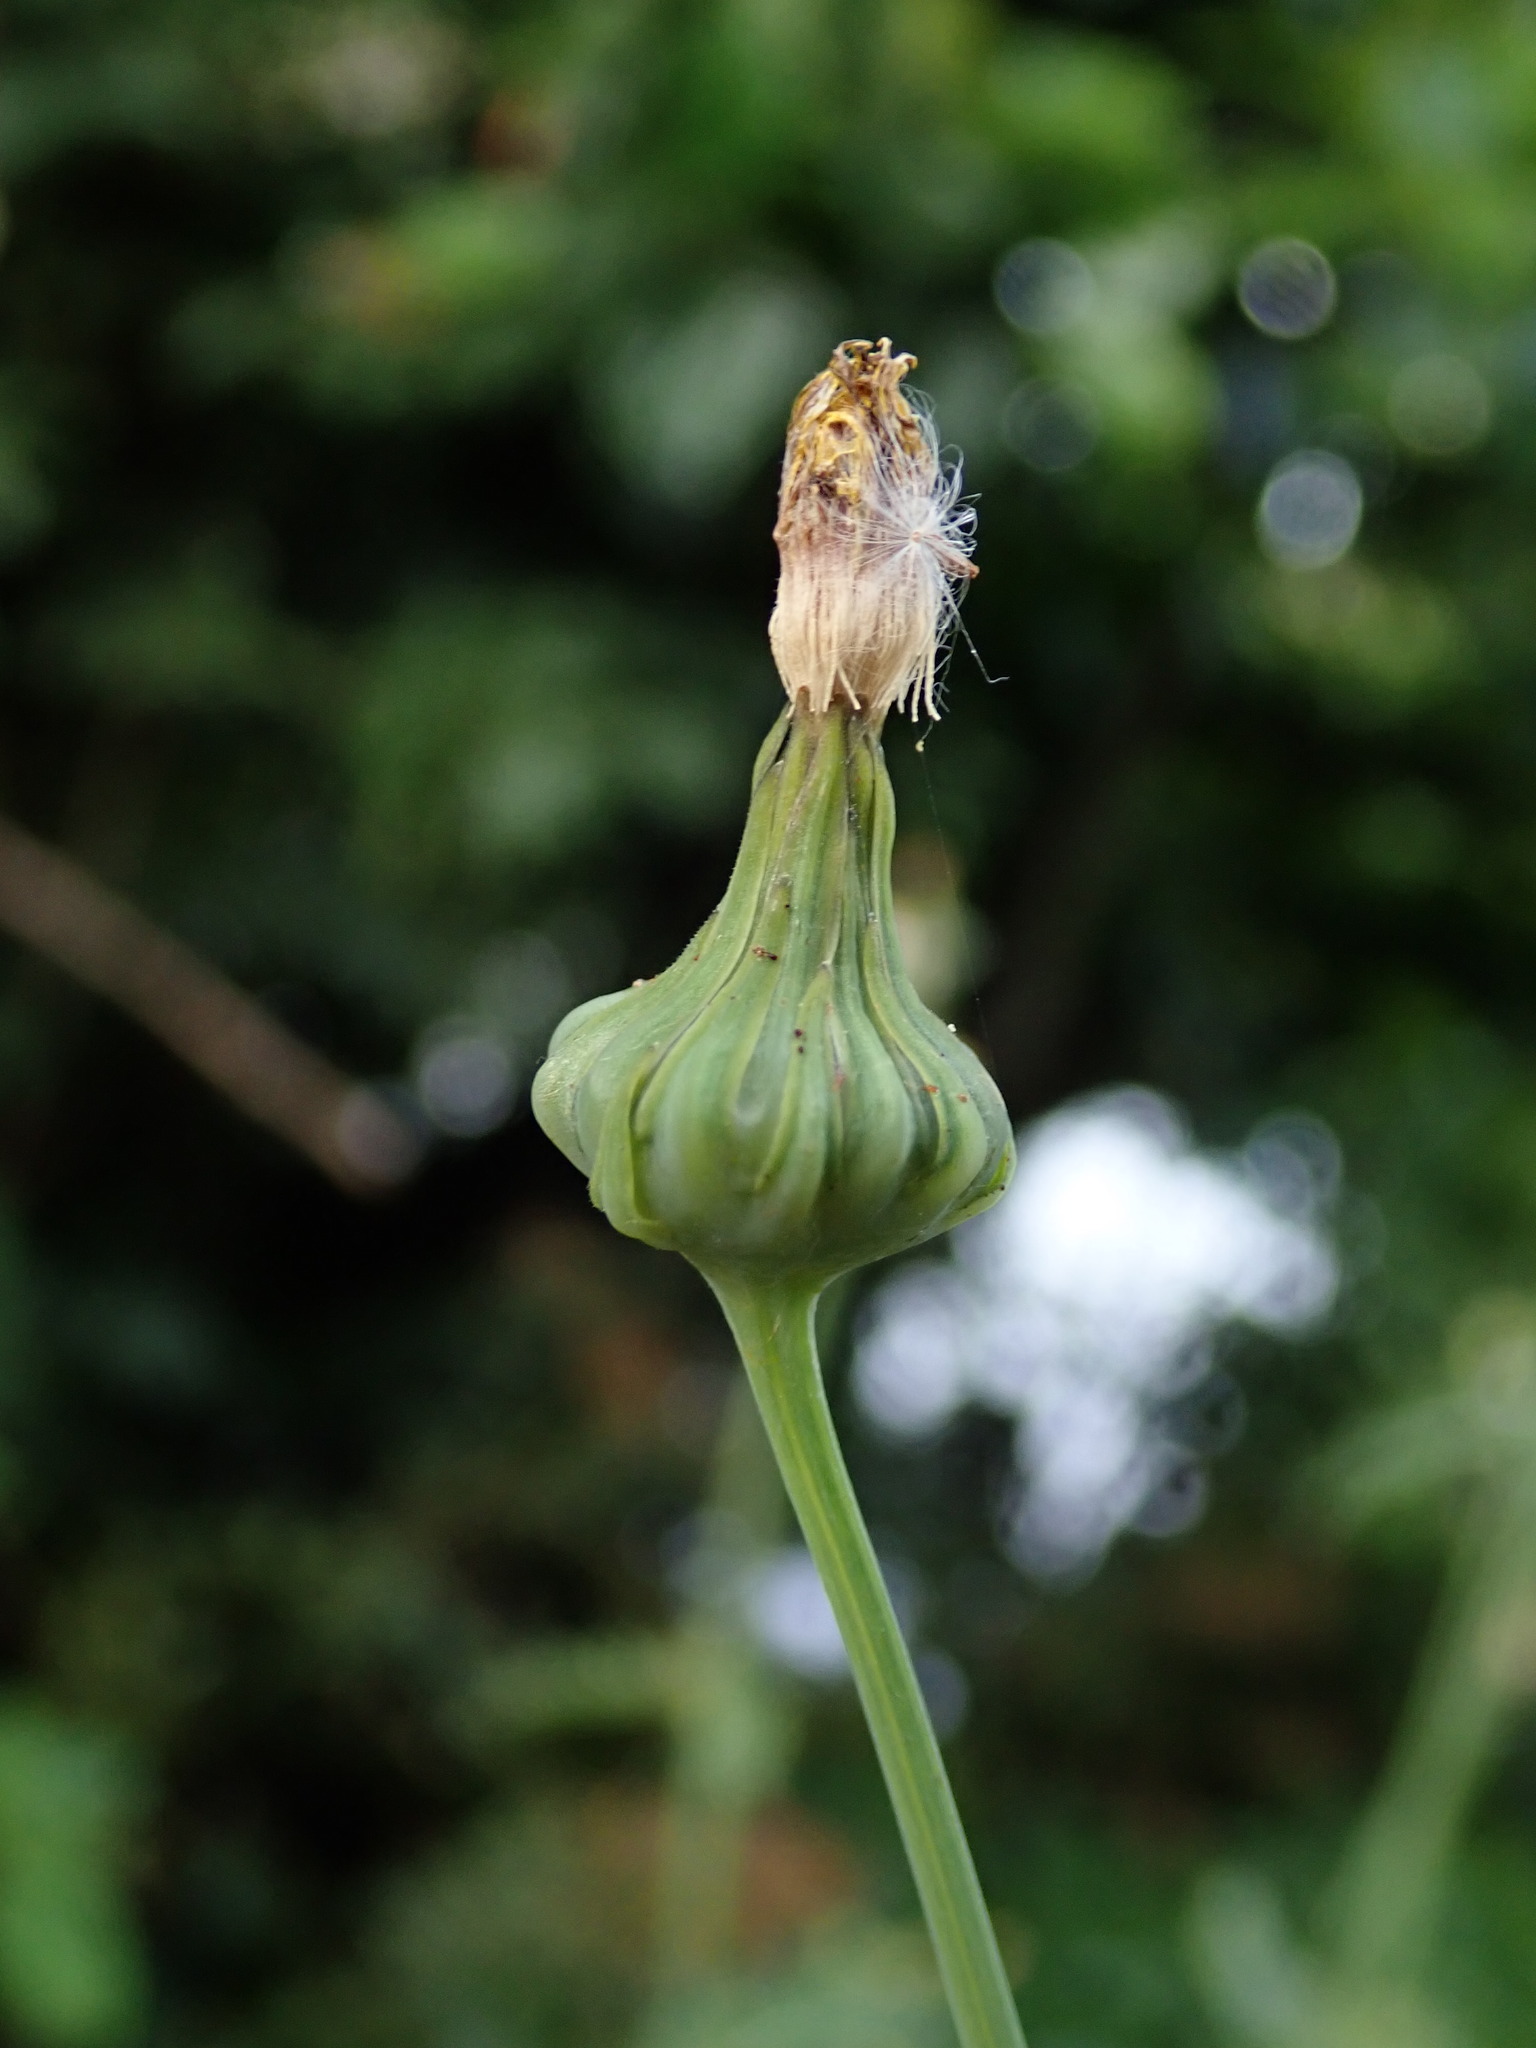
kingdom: Plantae
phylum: Tracheophyta
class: Magnoliopsida
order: Asterales
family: Asteraceae
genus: Sonchus
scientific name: Sonchus asper
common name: Prickly sow-thistle
